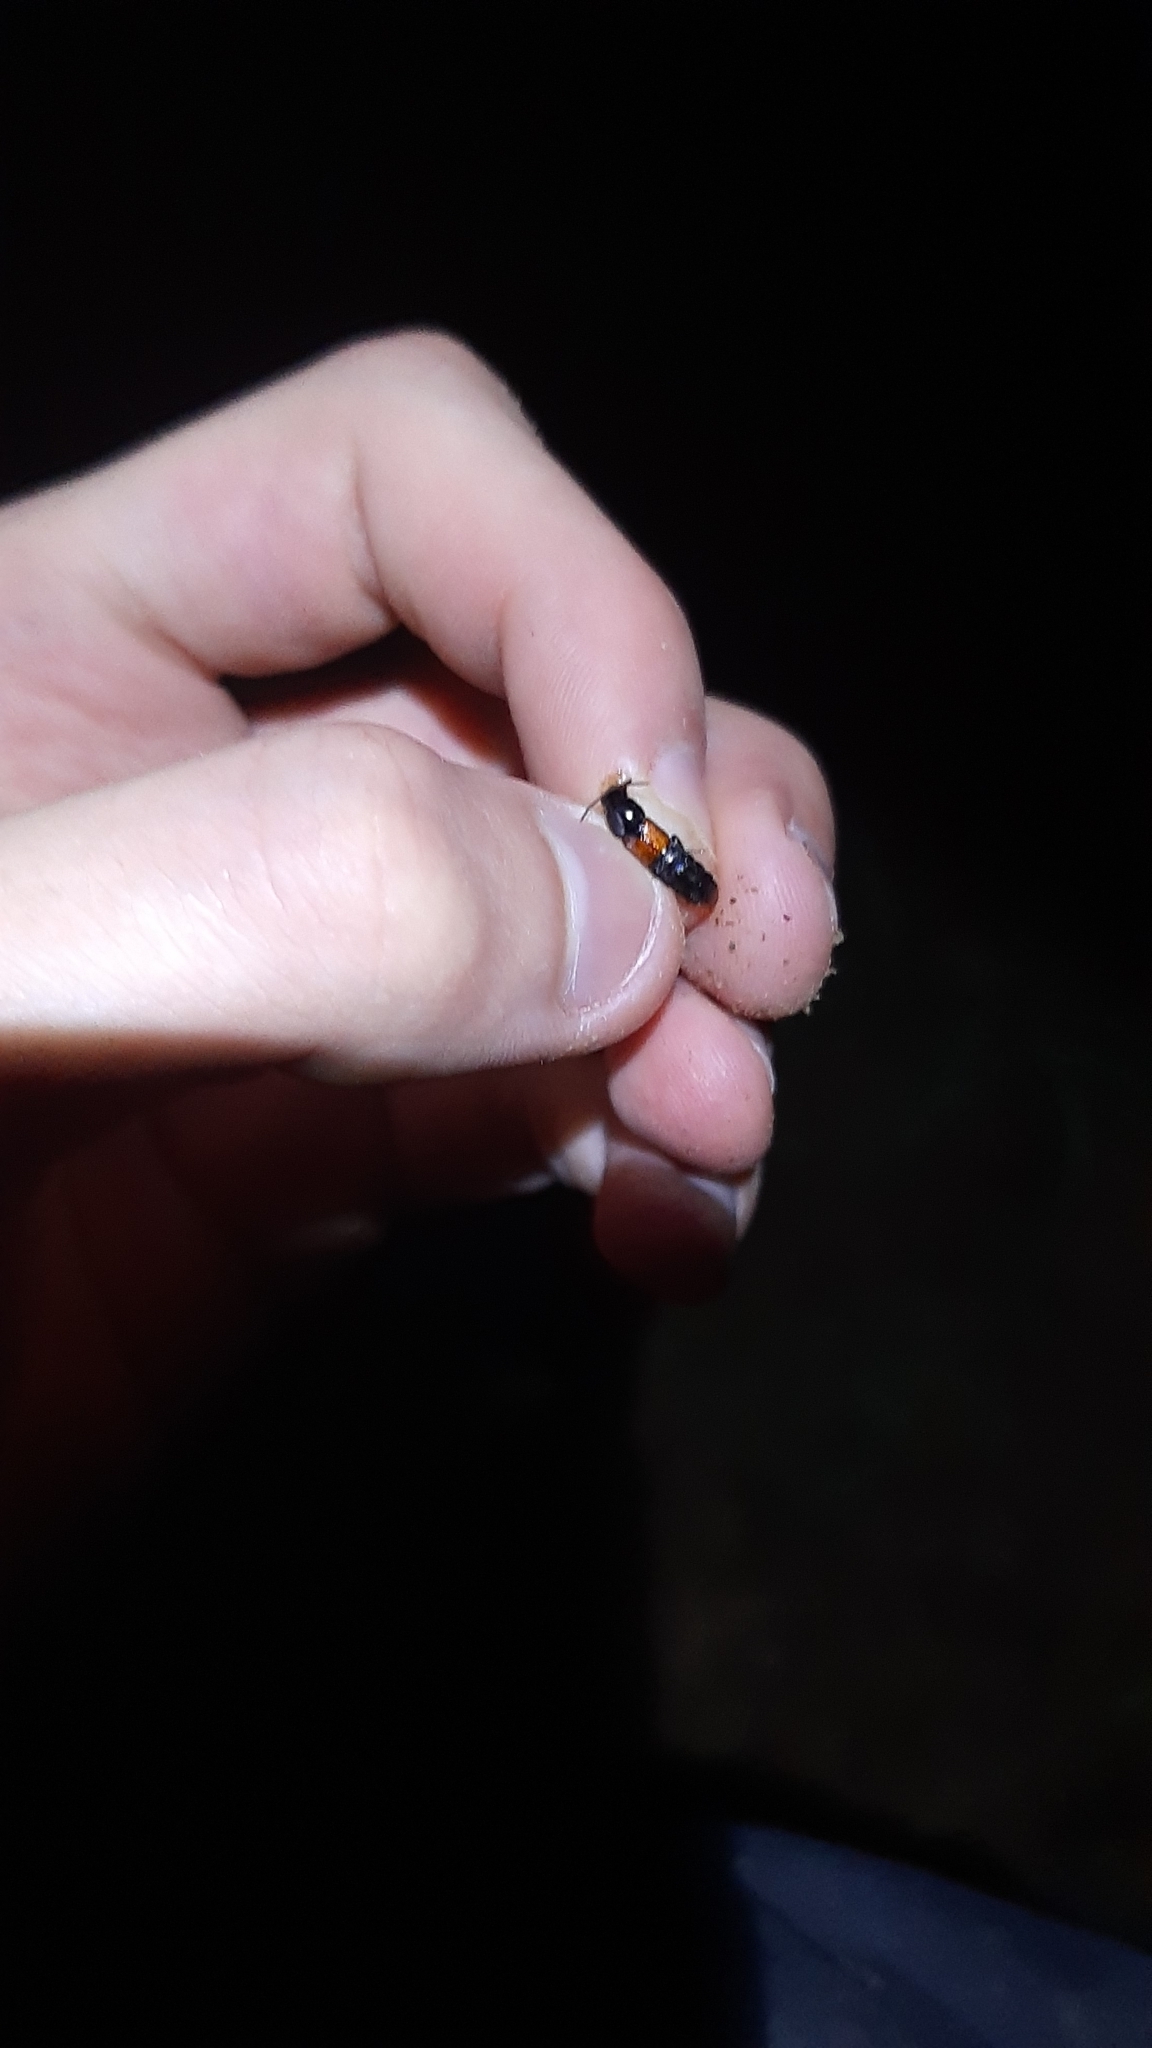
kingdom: Animalia
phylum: Arthropoda
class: Insecta
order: Coleoptera
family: Staphylinidae
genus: Astrapaeus
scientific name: Astrapaeus ulmi
